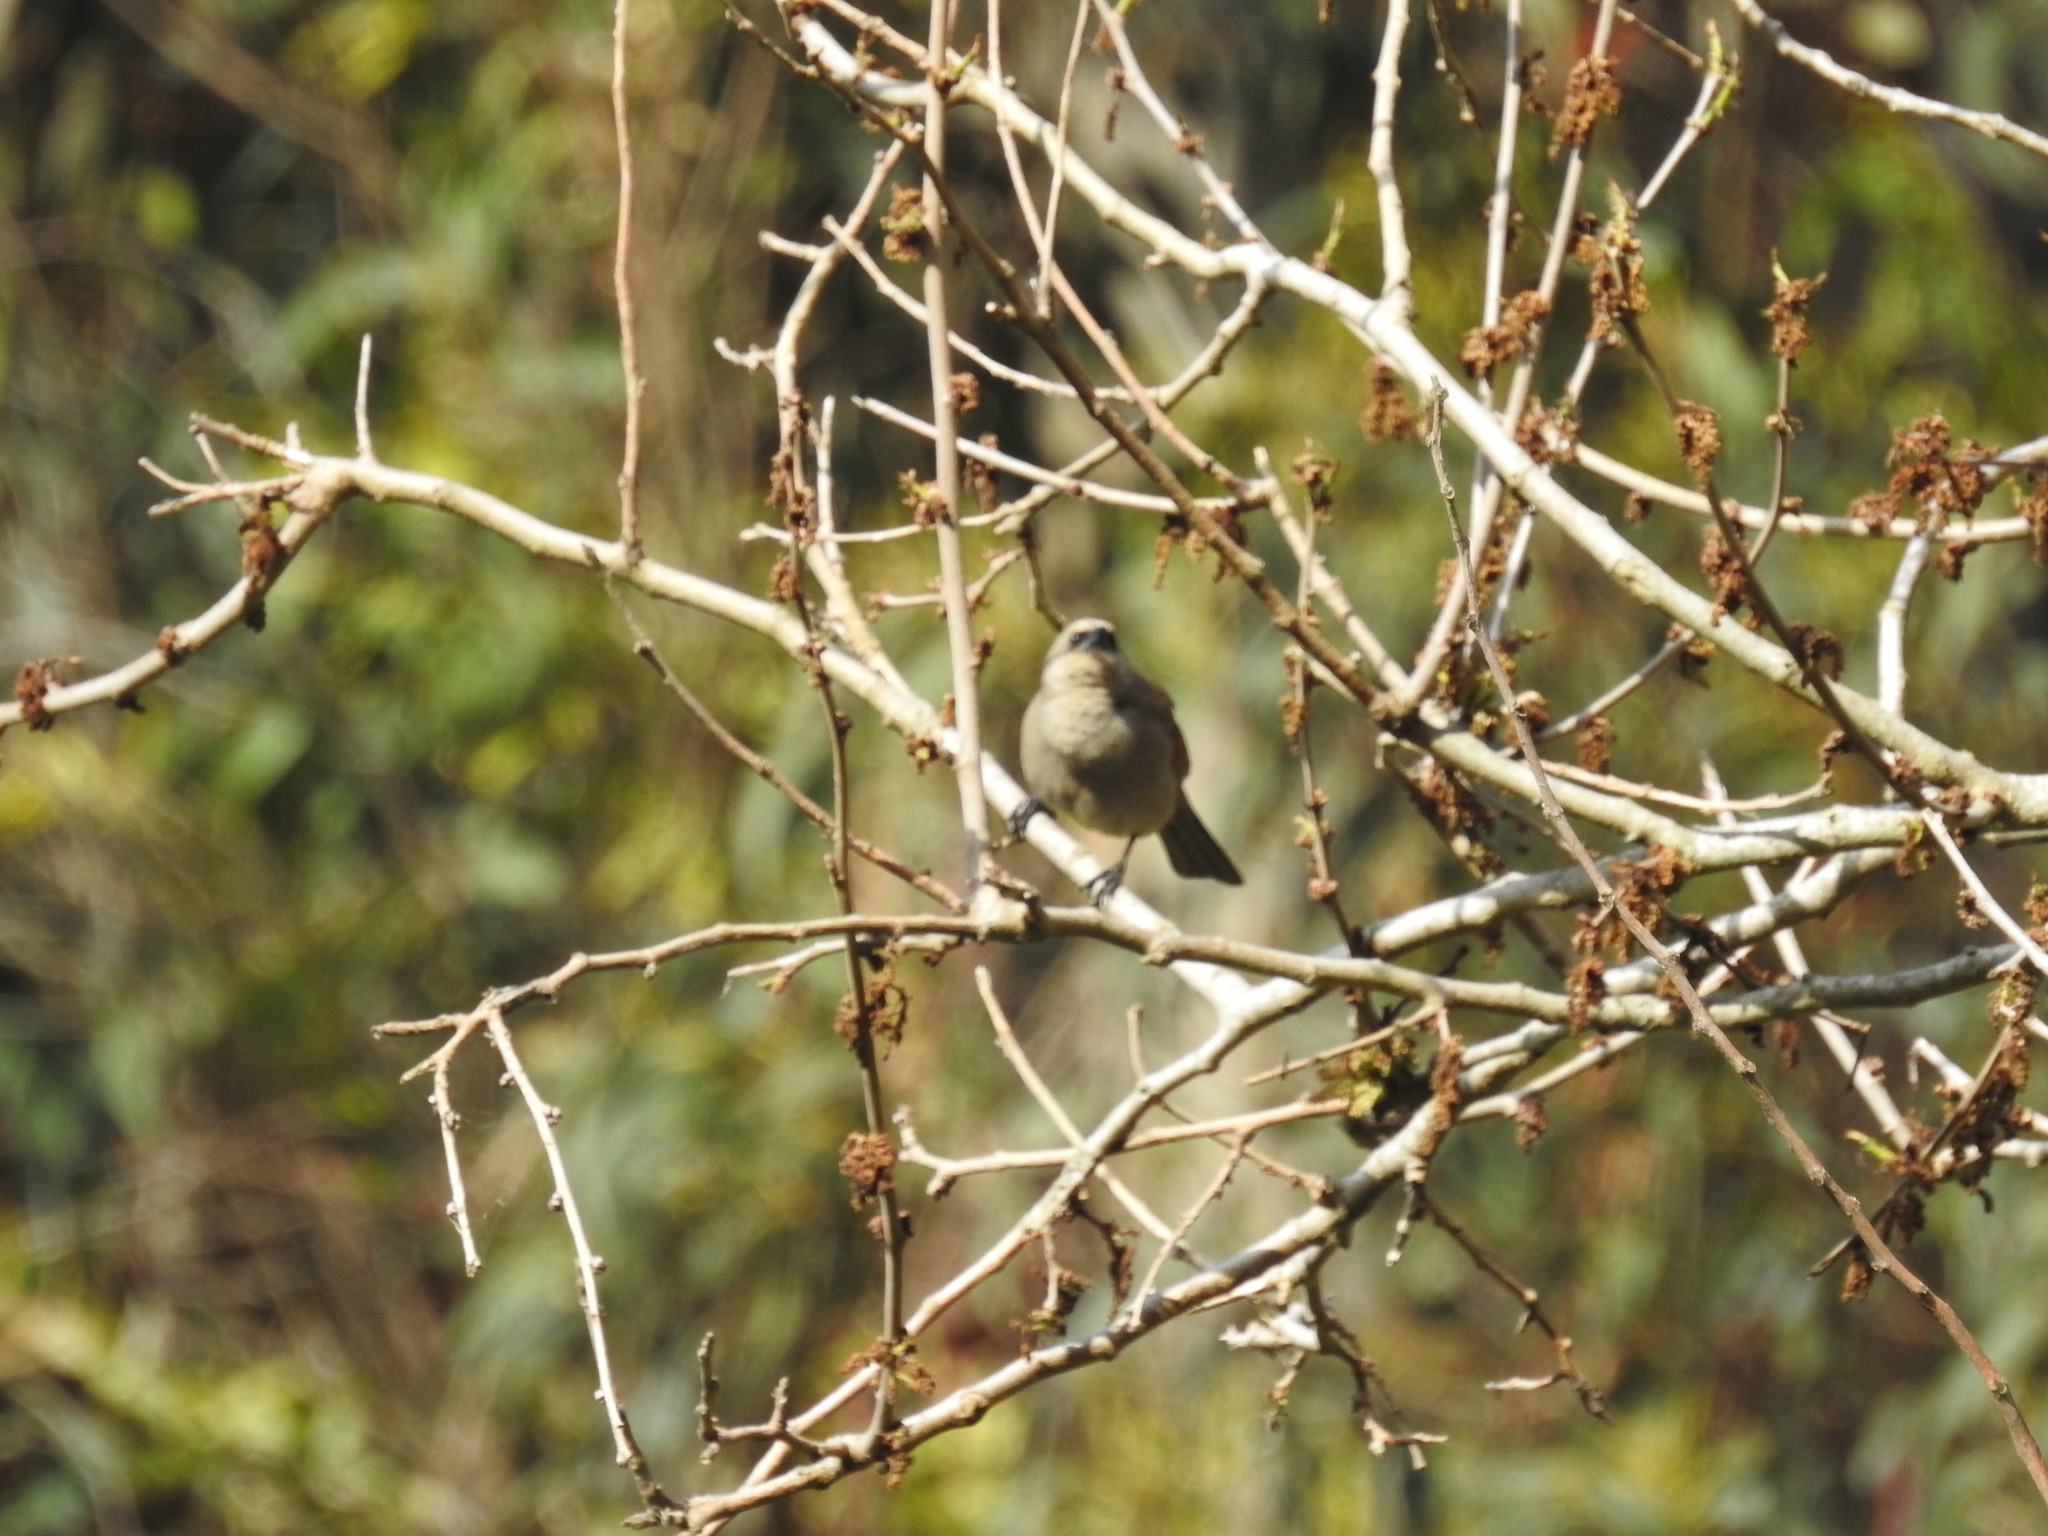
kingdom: Animalia
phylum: Chordata
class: Aves
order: Passeriformes
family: Icteridae
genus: Agelaioides
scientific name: Agelaioides badius
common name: Baywing
